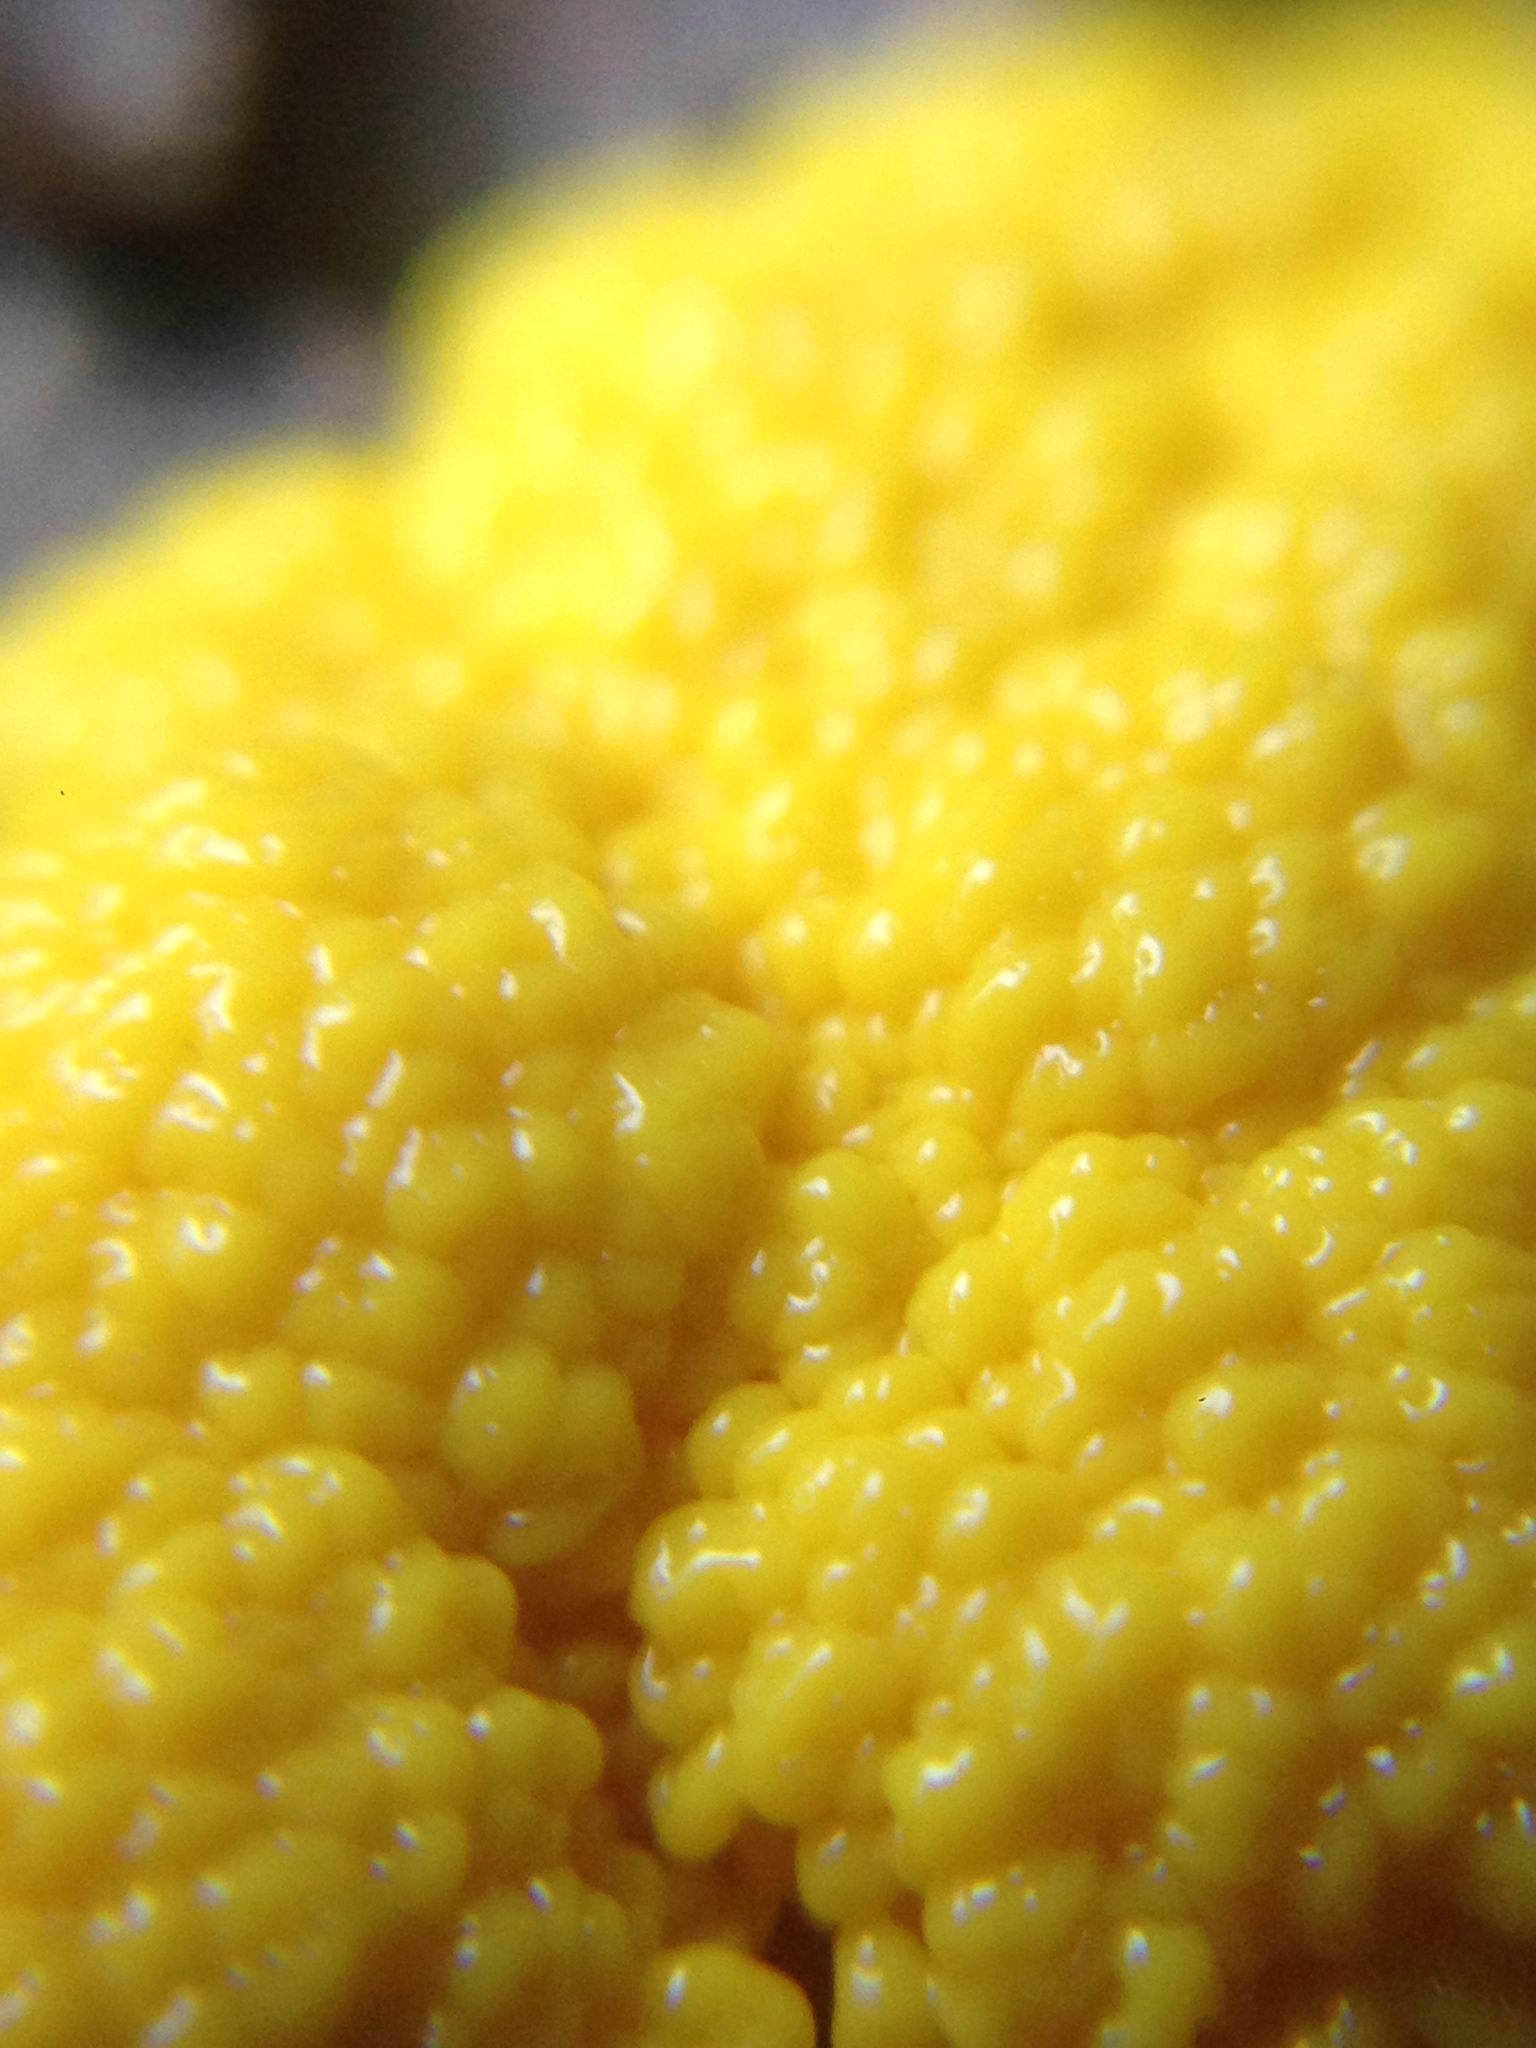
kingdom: Protozoa
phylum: Mycetozoa
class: Myxomycetes
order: Physarales
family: Physaraceae
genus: Fuligo
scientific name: Fuligo septica
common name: Dog vomit slime mold
